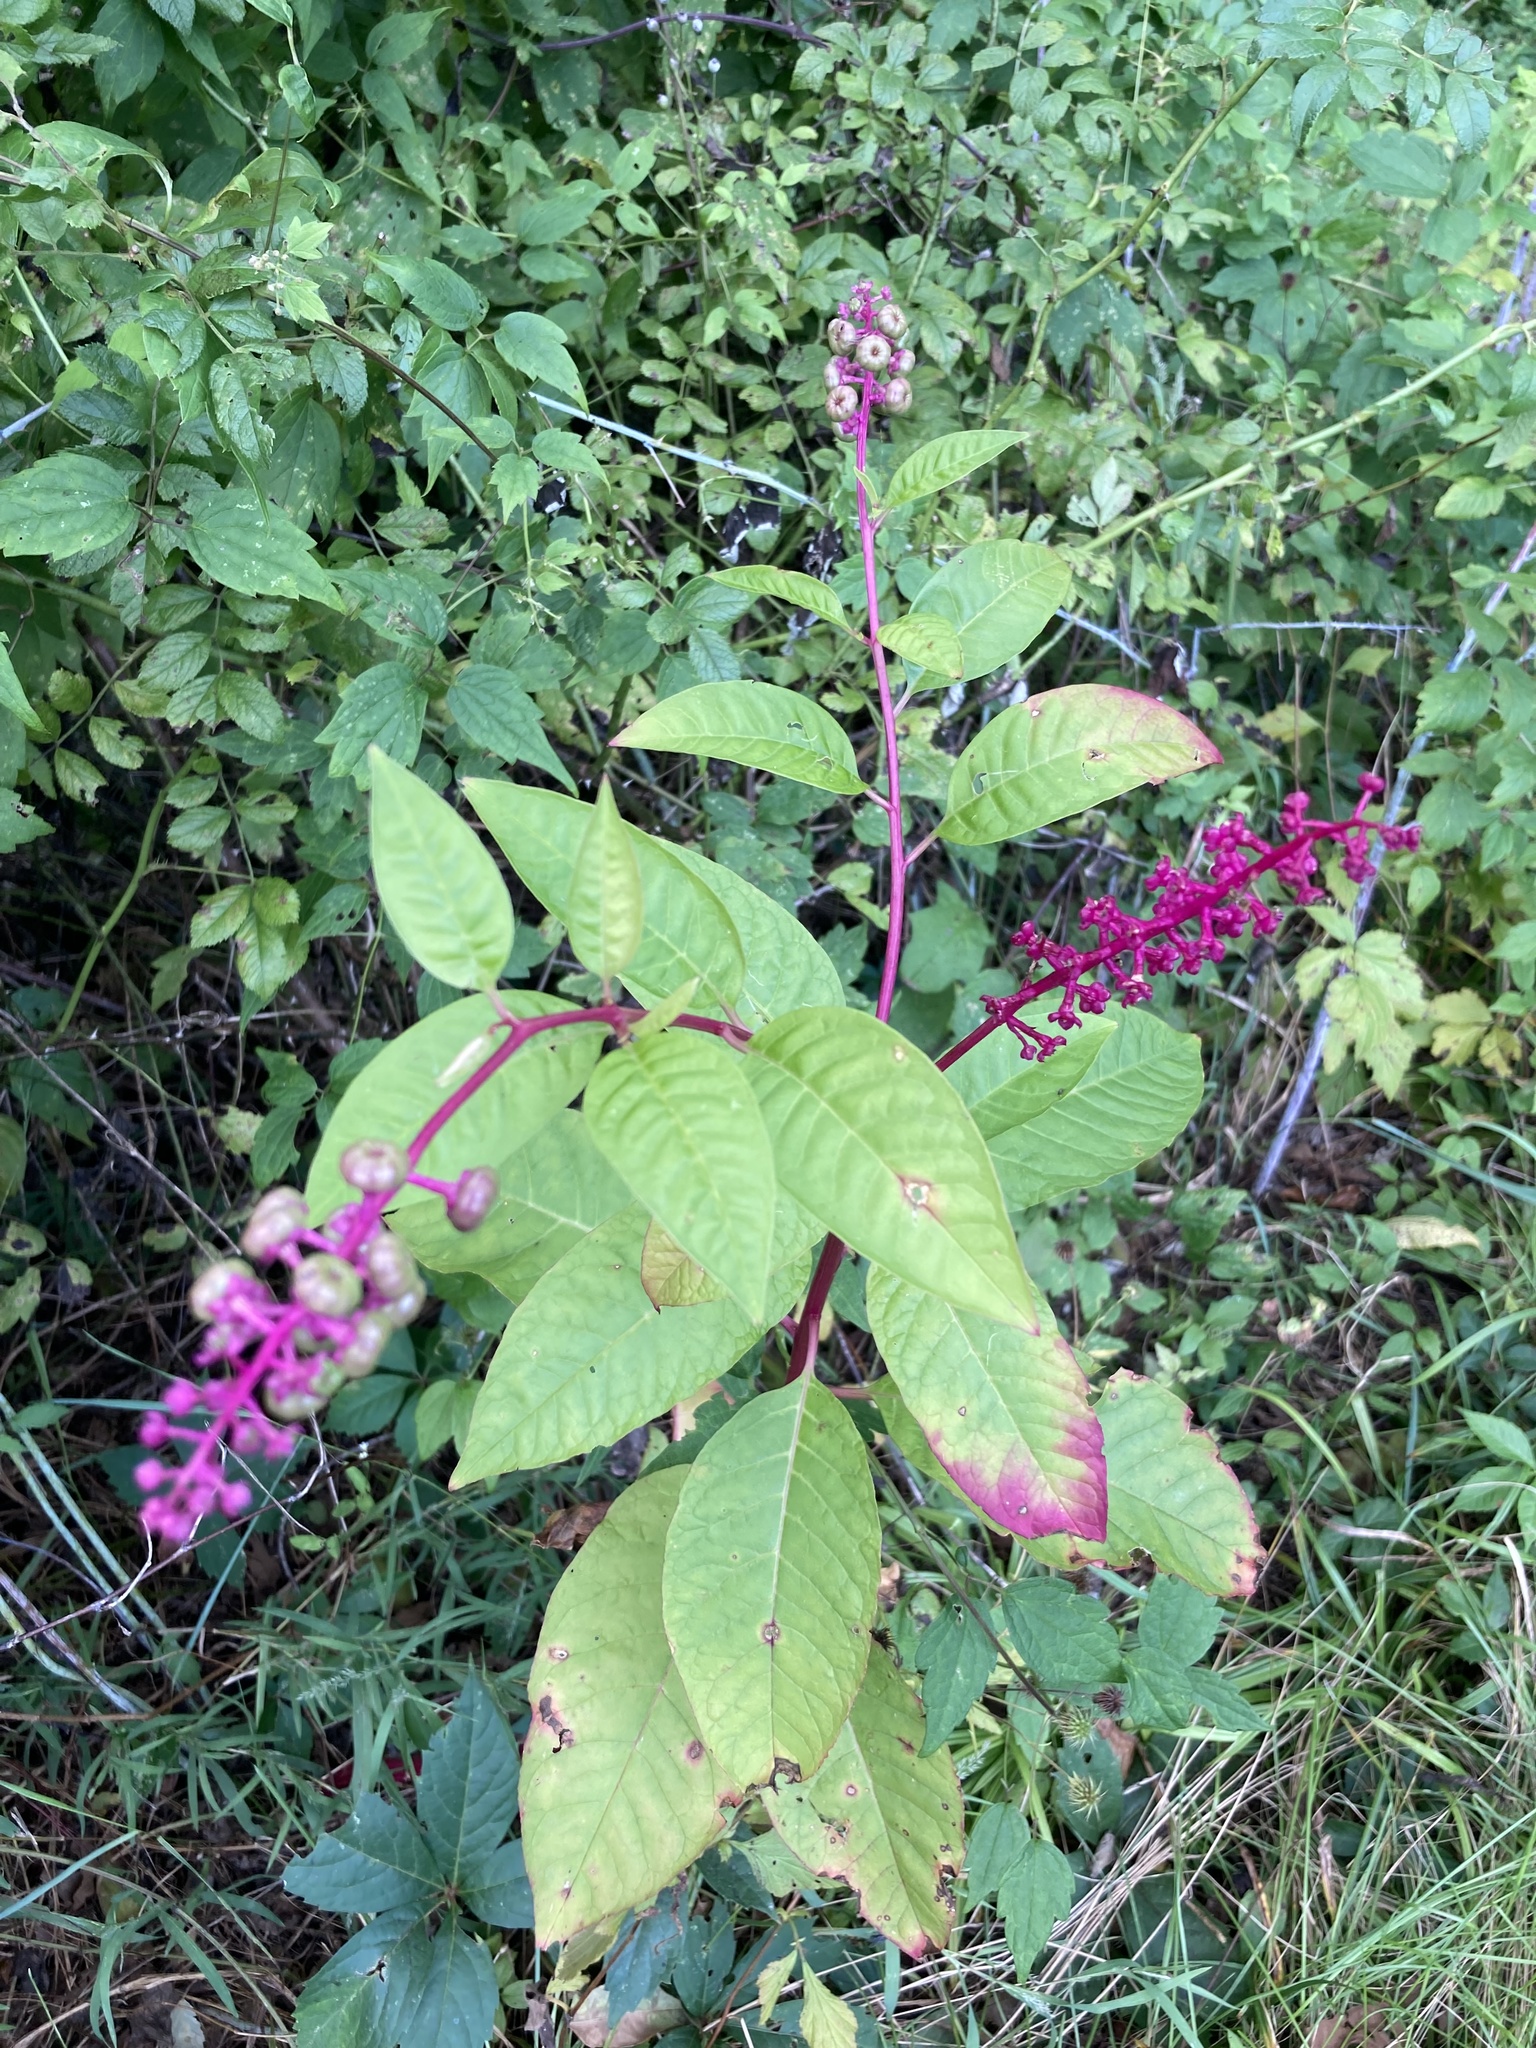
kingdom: Plantae
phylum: Tracheophyta
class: Magnoliopsida
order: Caryophyllales
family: Phytolaccaceae
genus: Phytolacca
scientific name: Phytolacca americana
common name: American pokeweed
